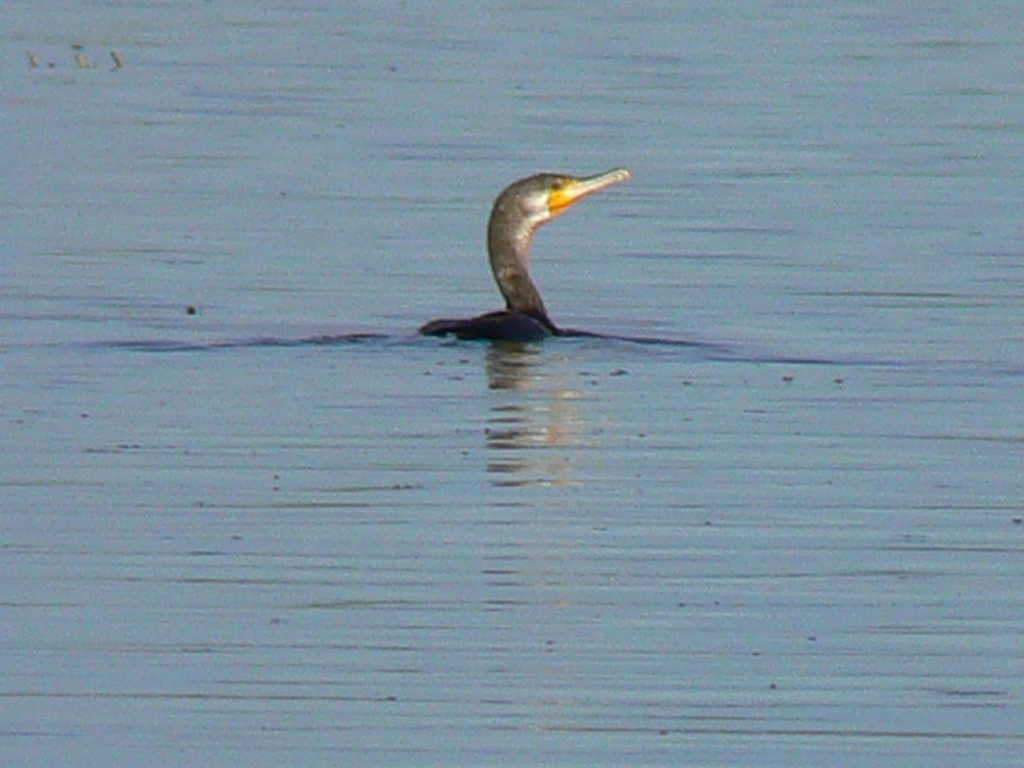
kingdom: Animalia
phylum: Chordata
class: Aves
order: Suliformes
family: Phalacrocoracidae
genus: Phalacrocorax
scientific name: Phalacrocorax carbo
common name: Great cormorant
